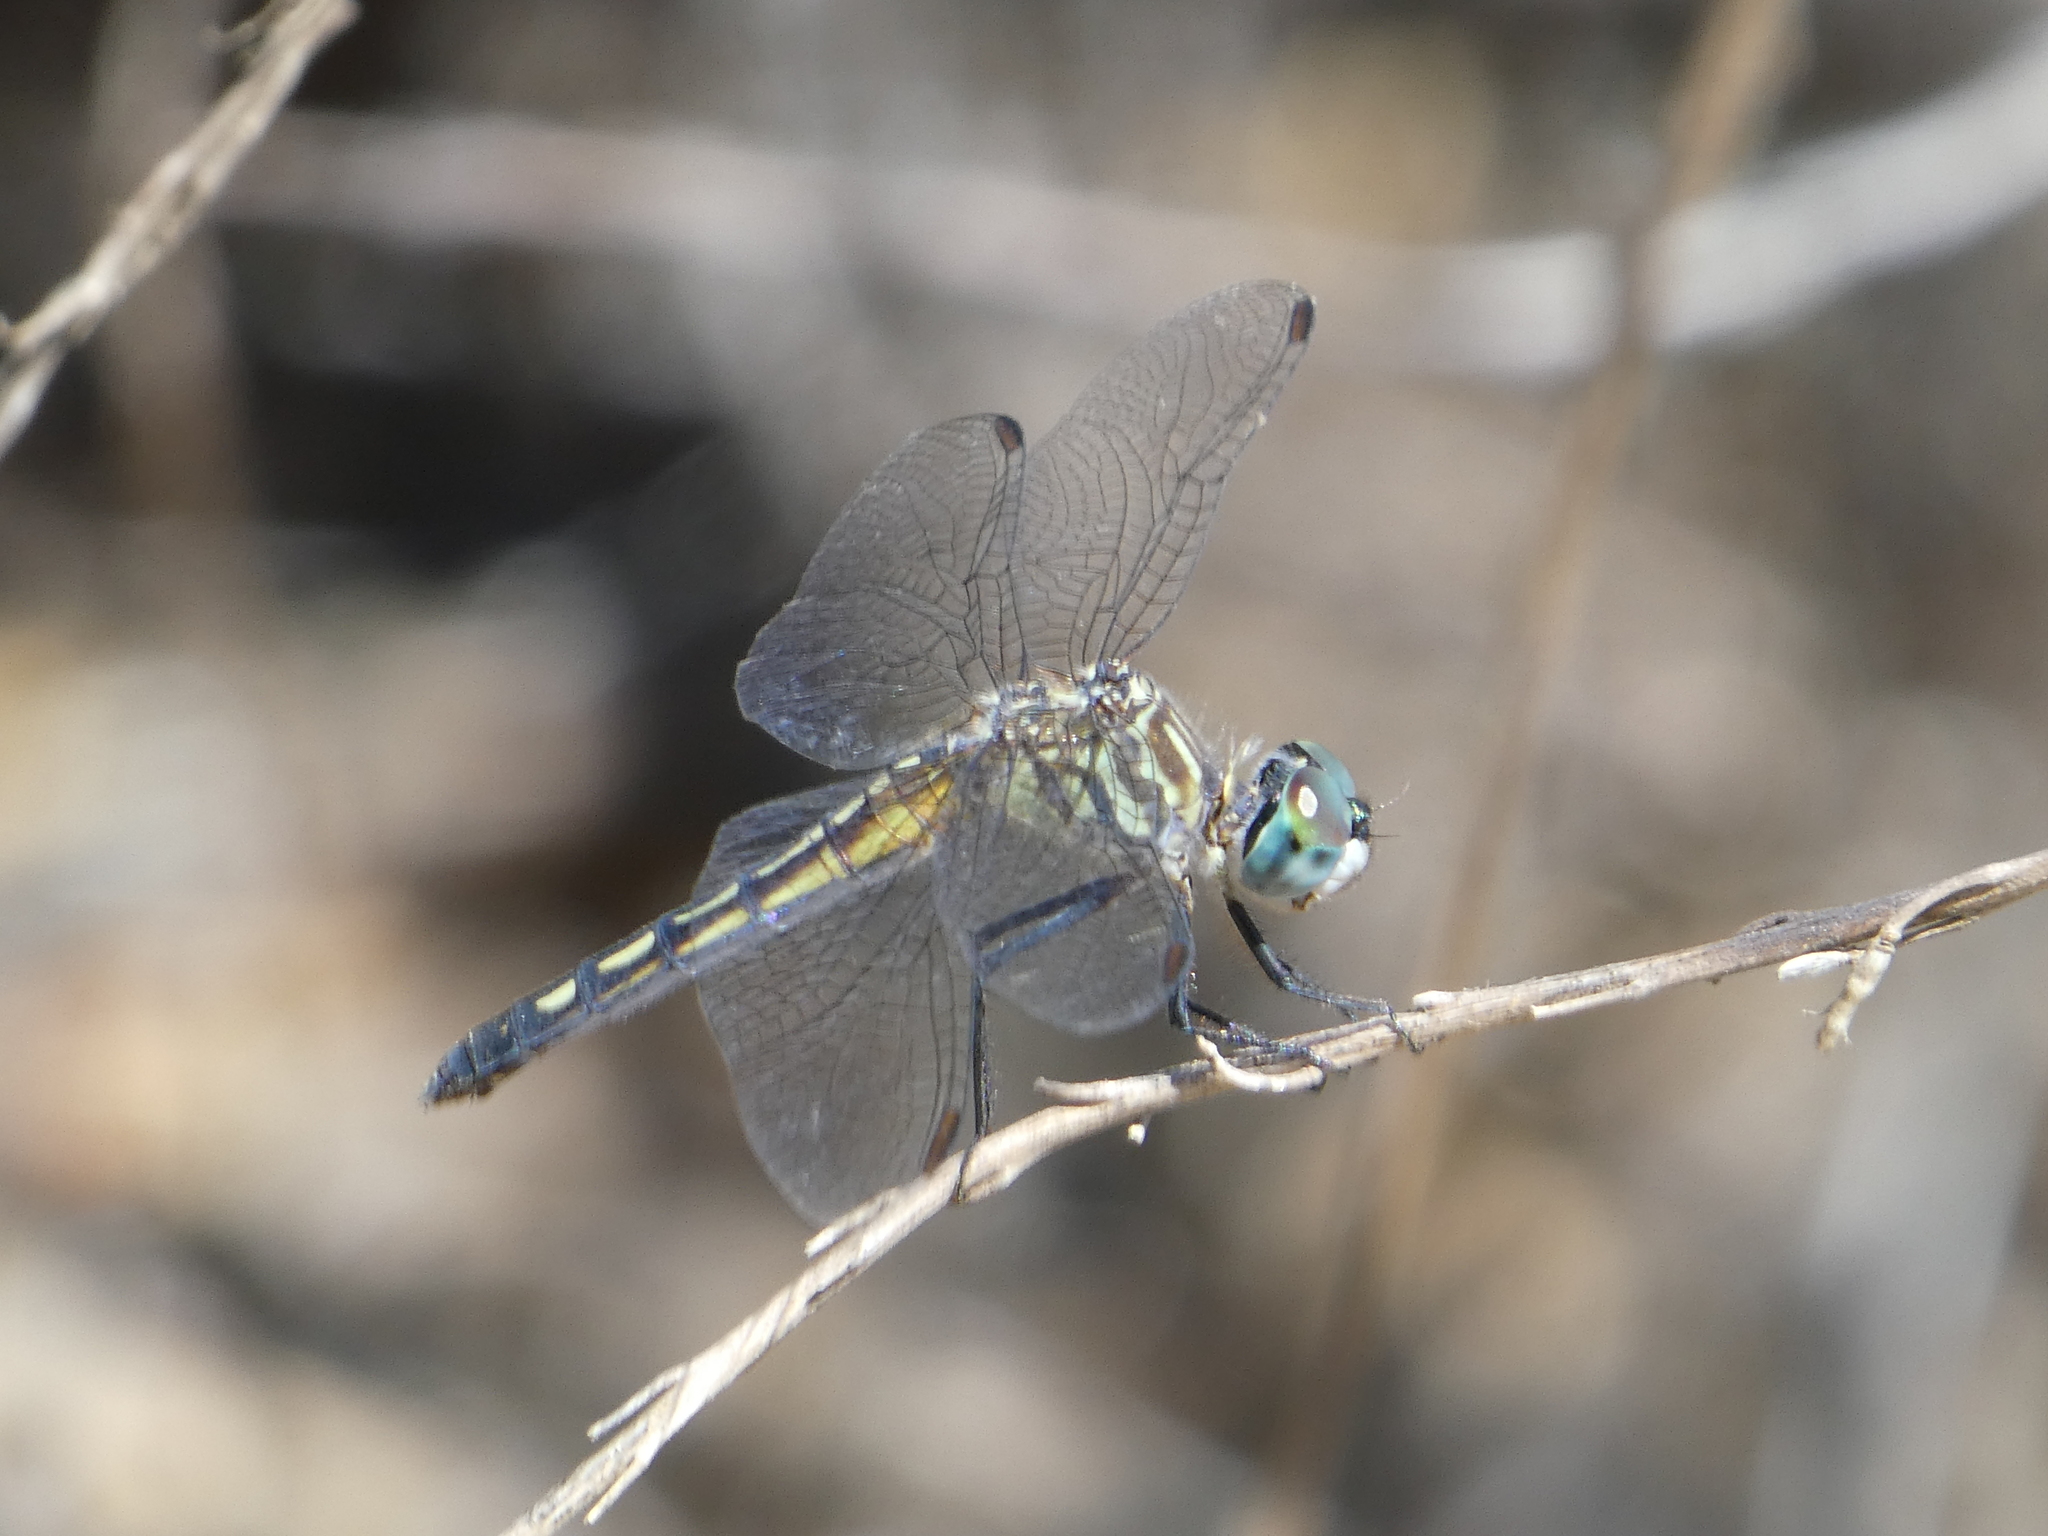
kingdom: Animalia
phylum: Arthropoda
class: Insecta
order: Odonata
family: Libellulidae
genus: Pachydiplax
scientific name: Pachydiplax longipennis
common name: Blue dasher
